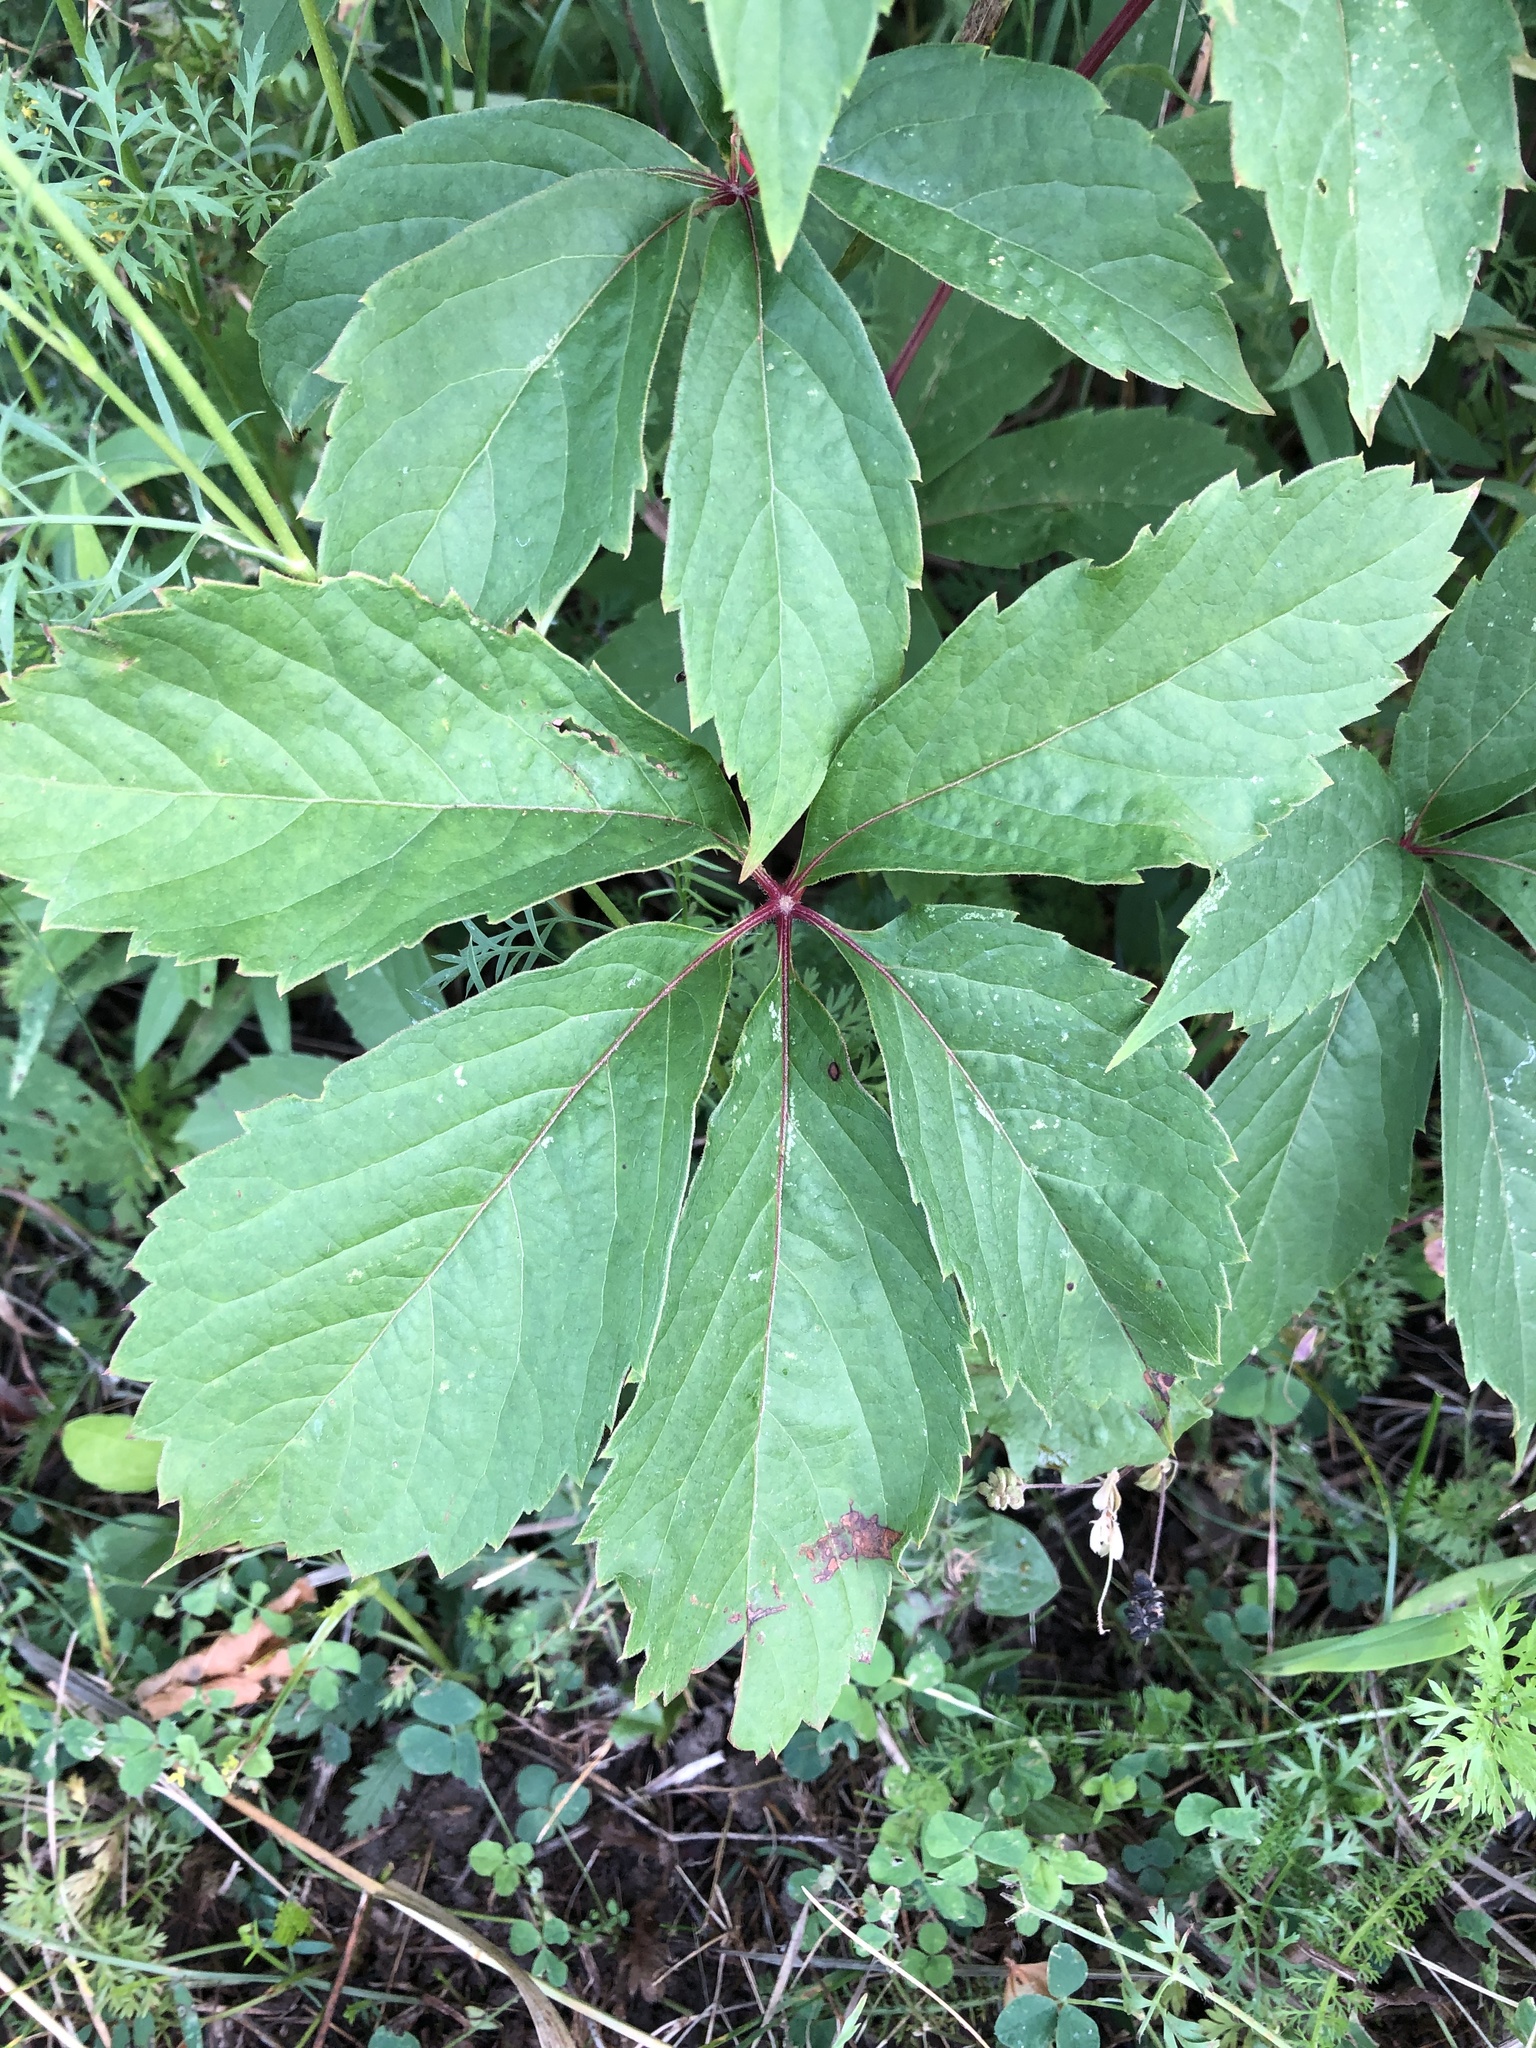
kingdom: Plantae
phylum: Tracheophyta
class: Magnoliopsida
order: Vitales
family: Vitaceae
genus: Parthenocissus
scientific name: Parthenocissus inserta
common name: False virginia-creeper
